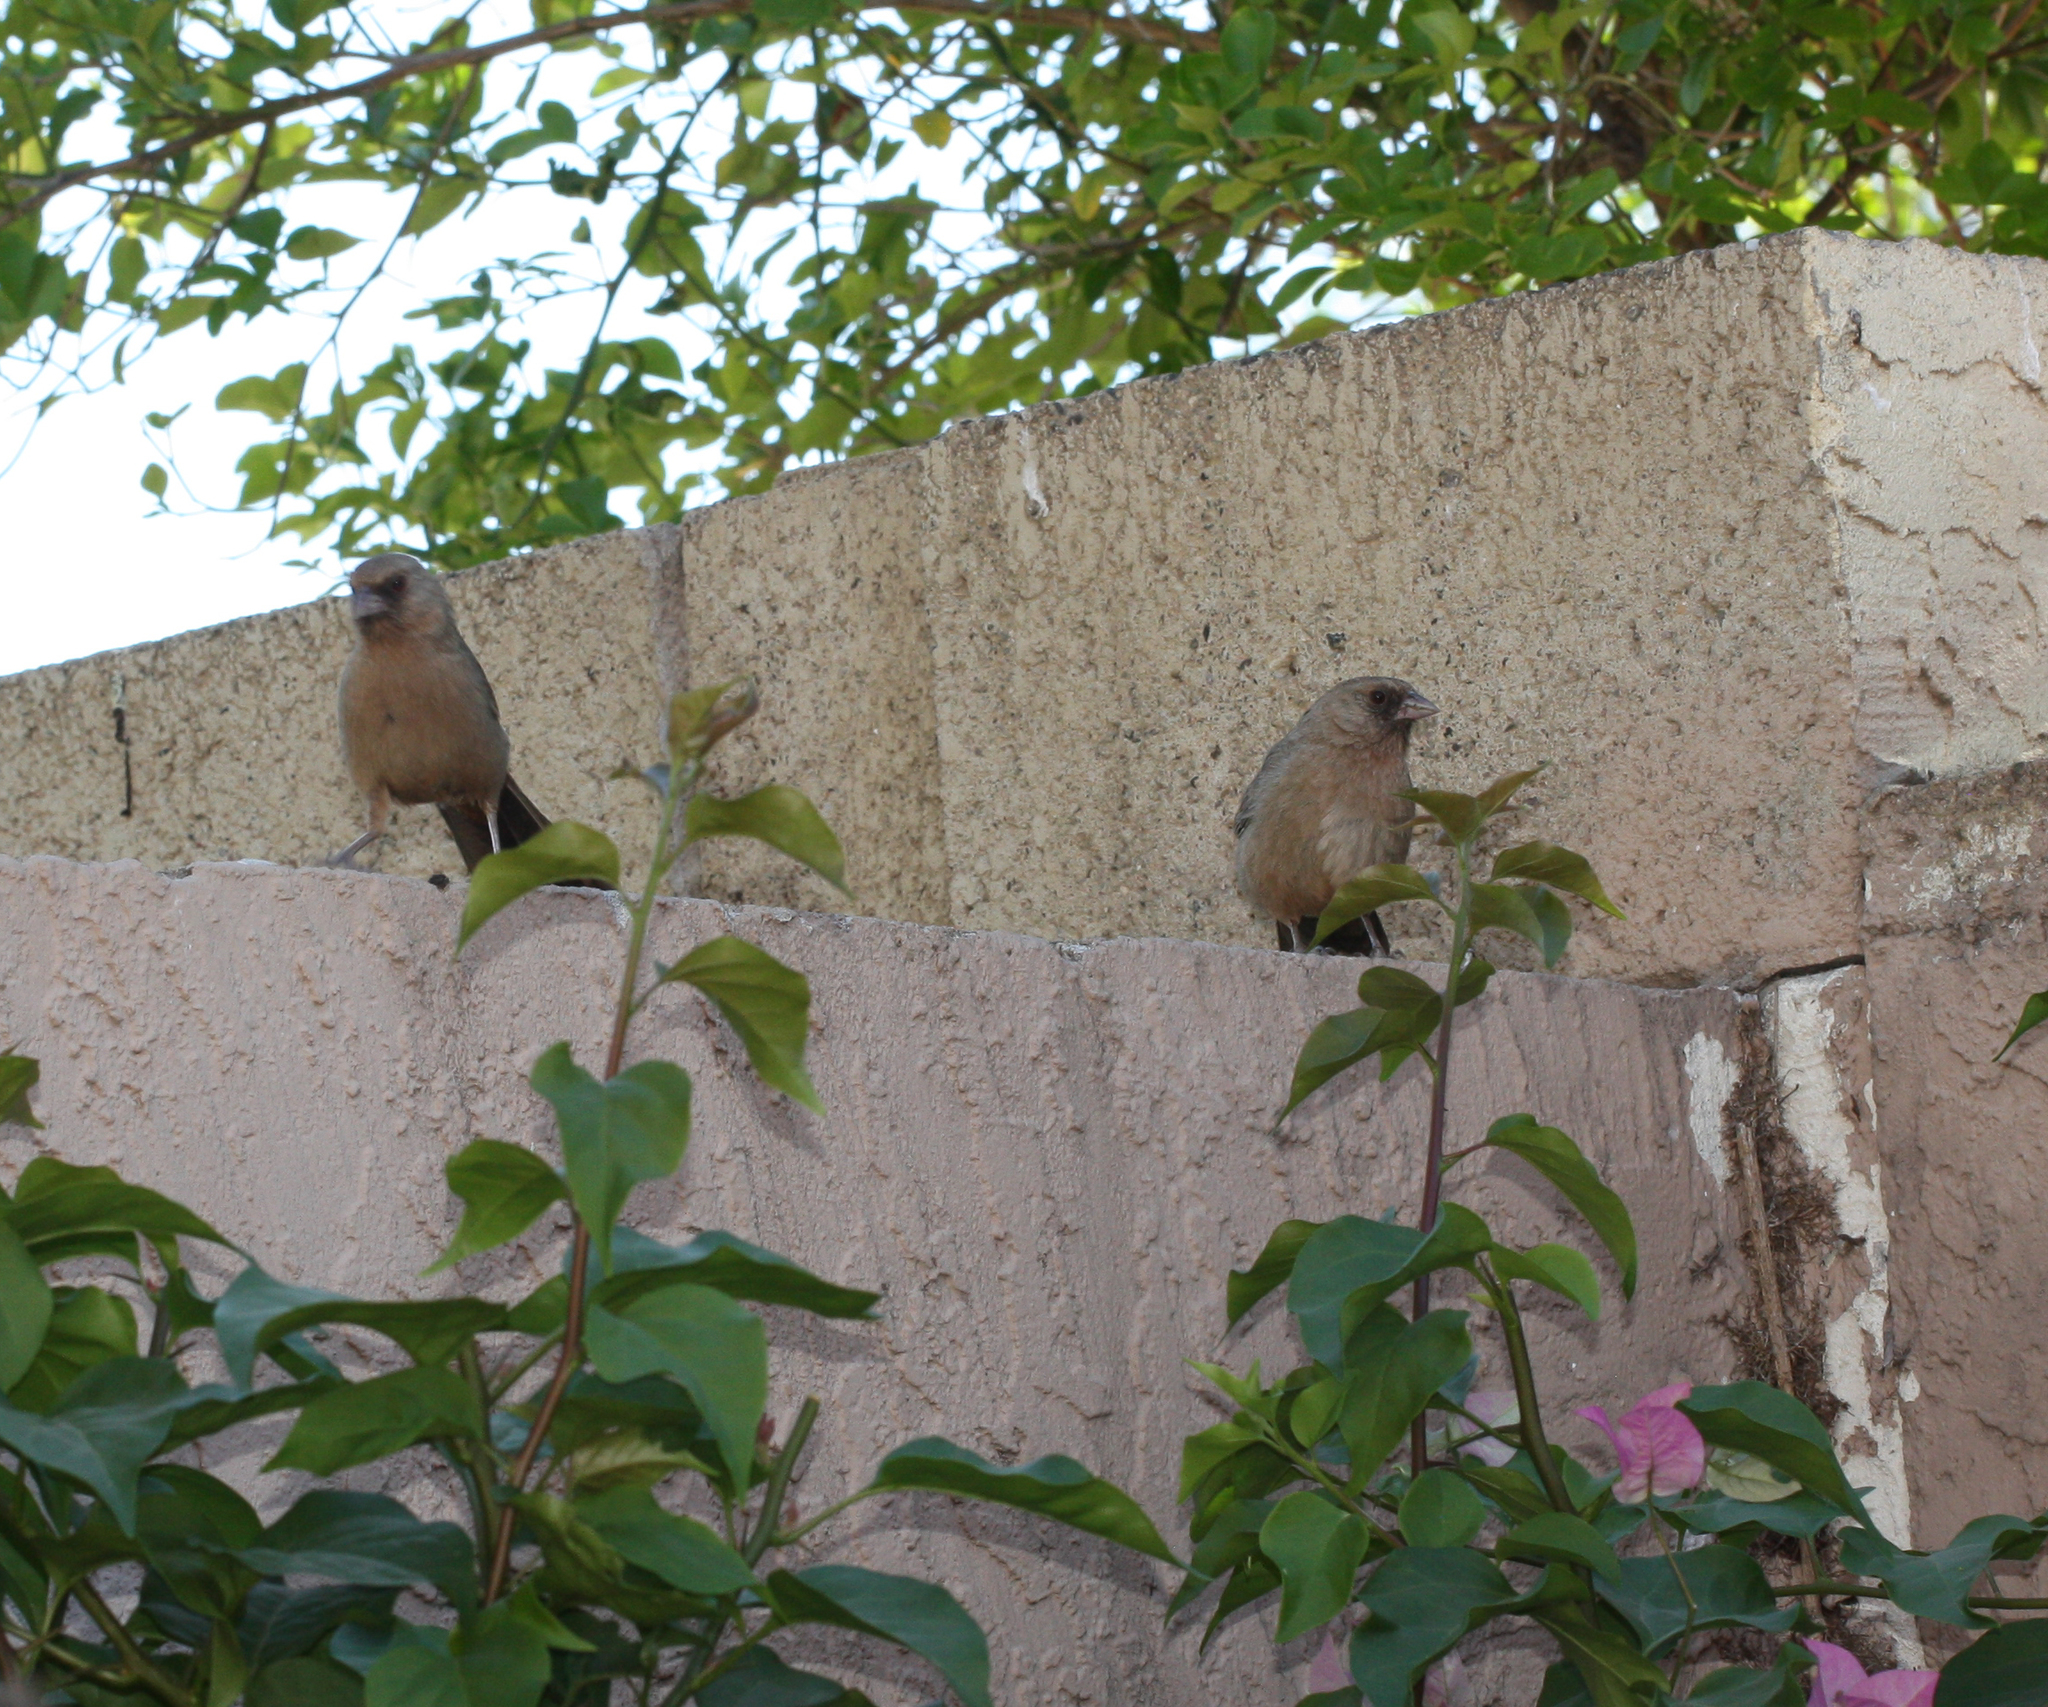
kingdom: Animalia
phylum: Chordata
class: Aves
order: Passeriformes
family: Passerellidae
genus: Melozone
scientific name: Melozone aberti
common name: Abert's towhee
